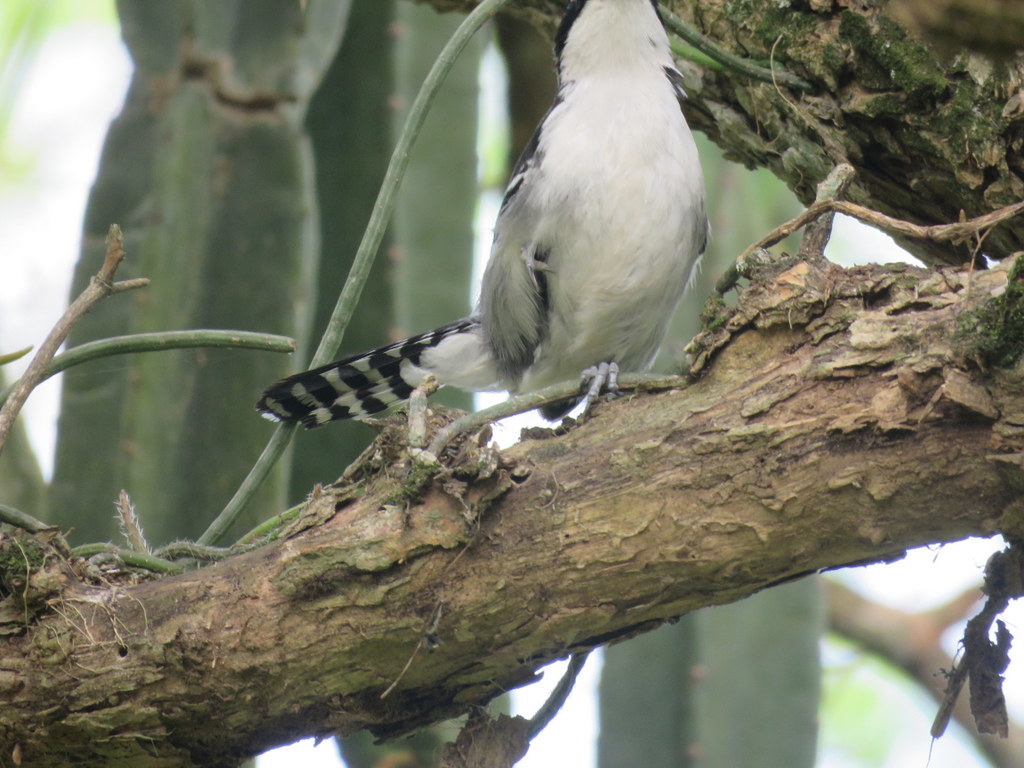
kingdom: Animalia
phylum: Chordata
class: Aves
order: Passeriformes
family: Thamnophilidae
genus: Taraba
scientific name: Taraba major
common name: Great antshrike
